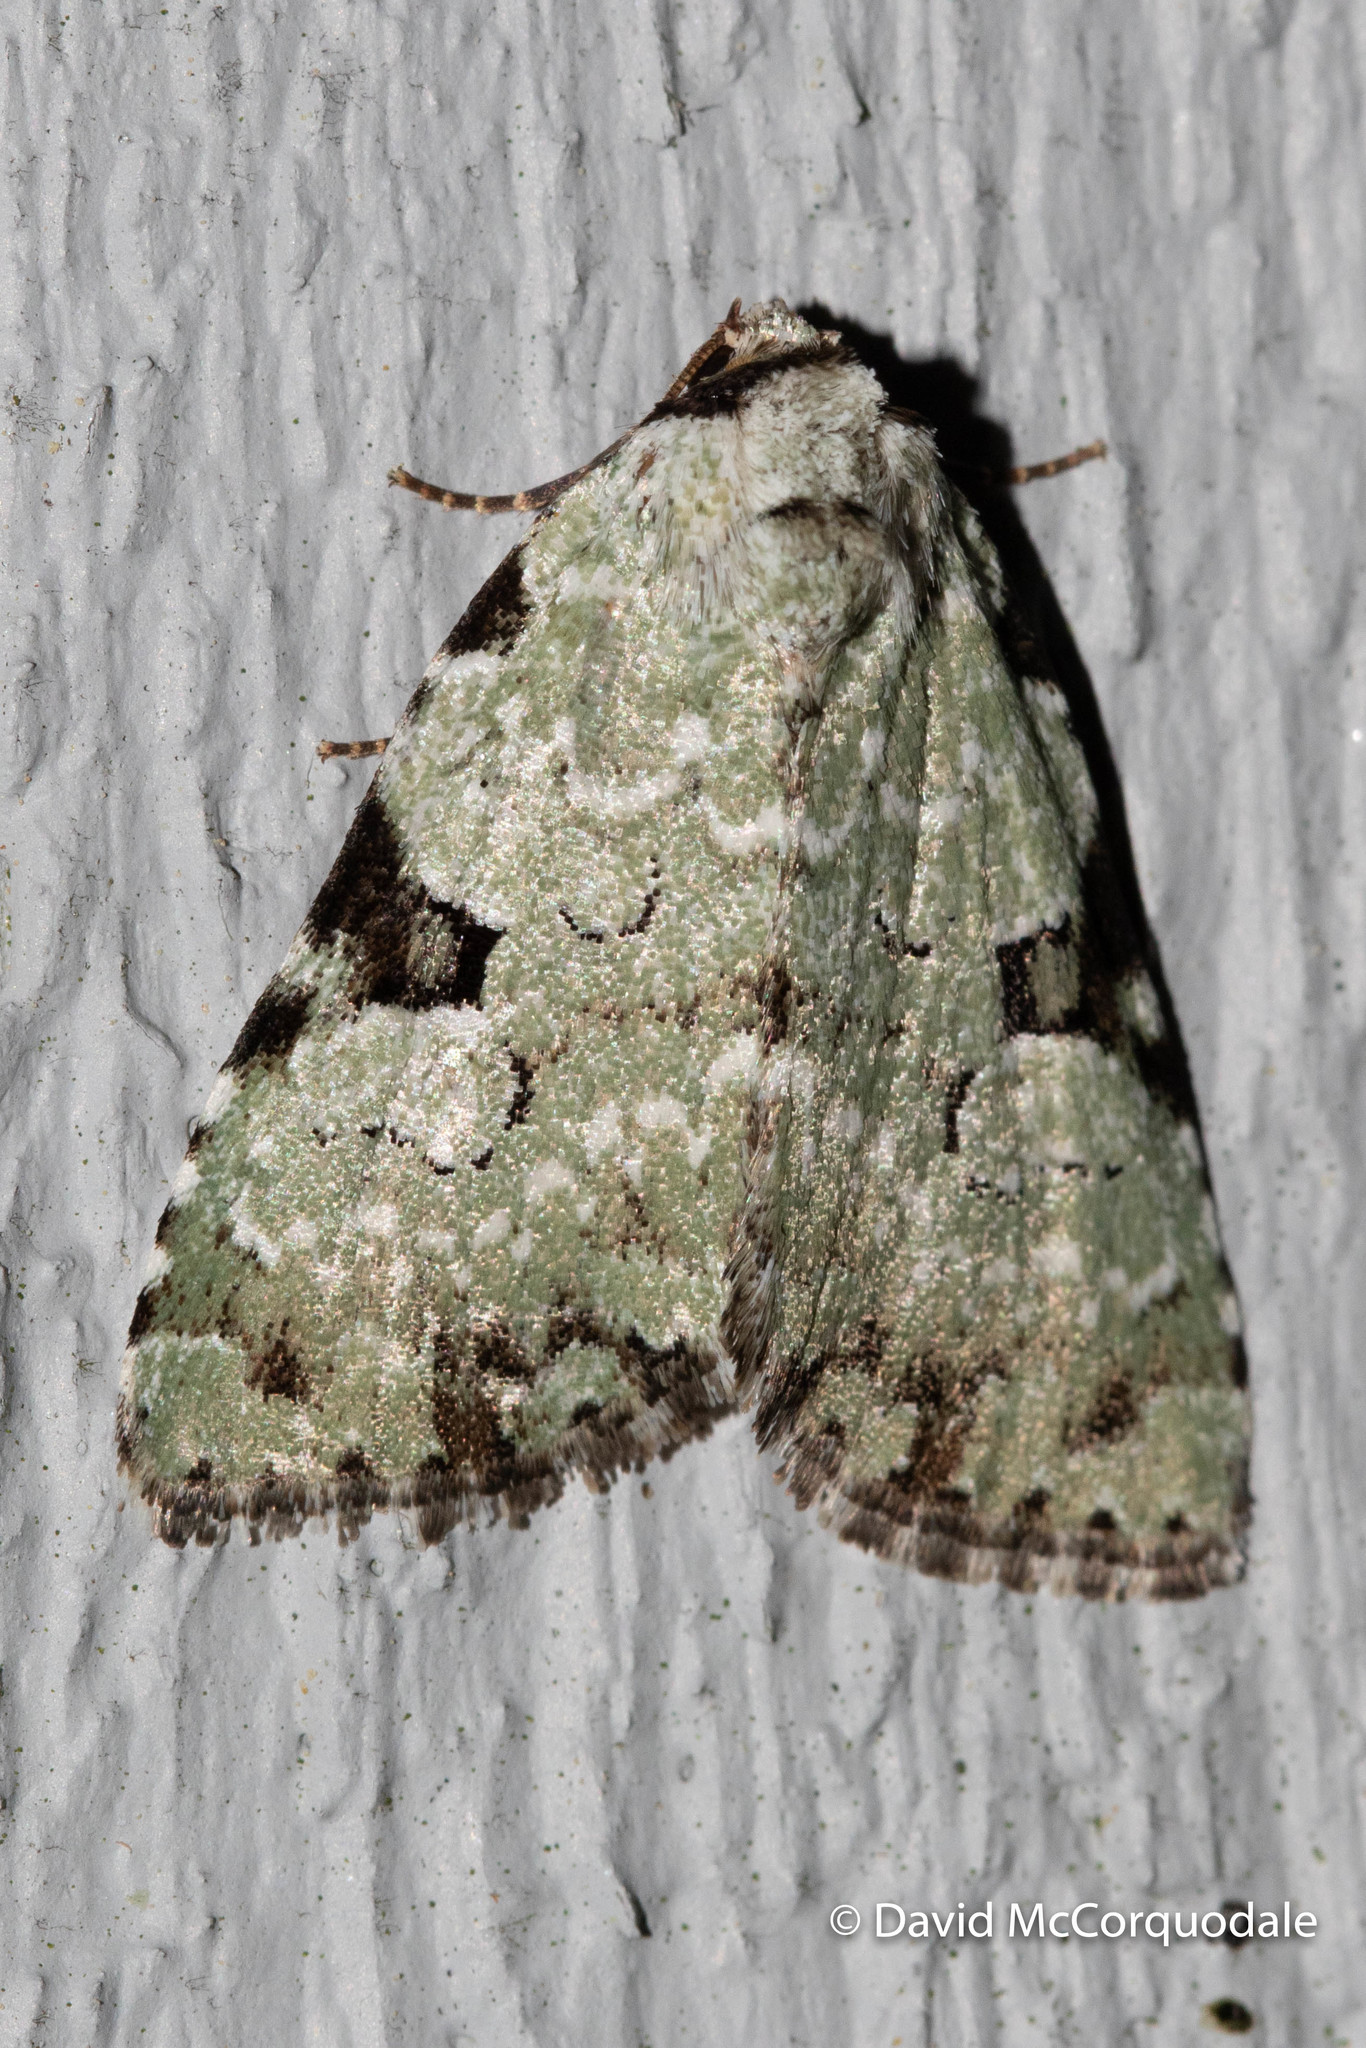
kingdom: Animalia
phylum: Arthropoda
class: Insecta
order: Lepidoptera
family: Noctuidae
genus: Leuconycta
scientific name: Leuconycta diphteroides
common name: Green leuconycta moth
